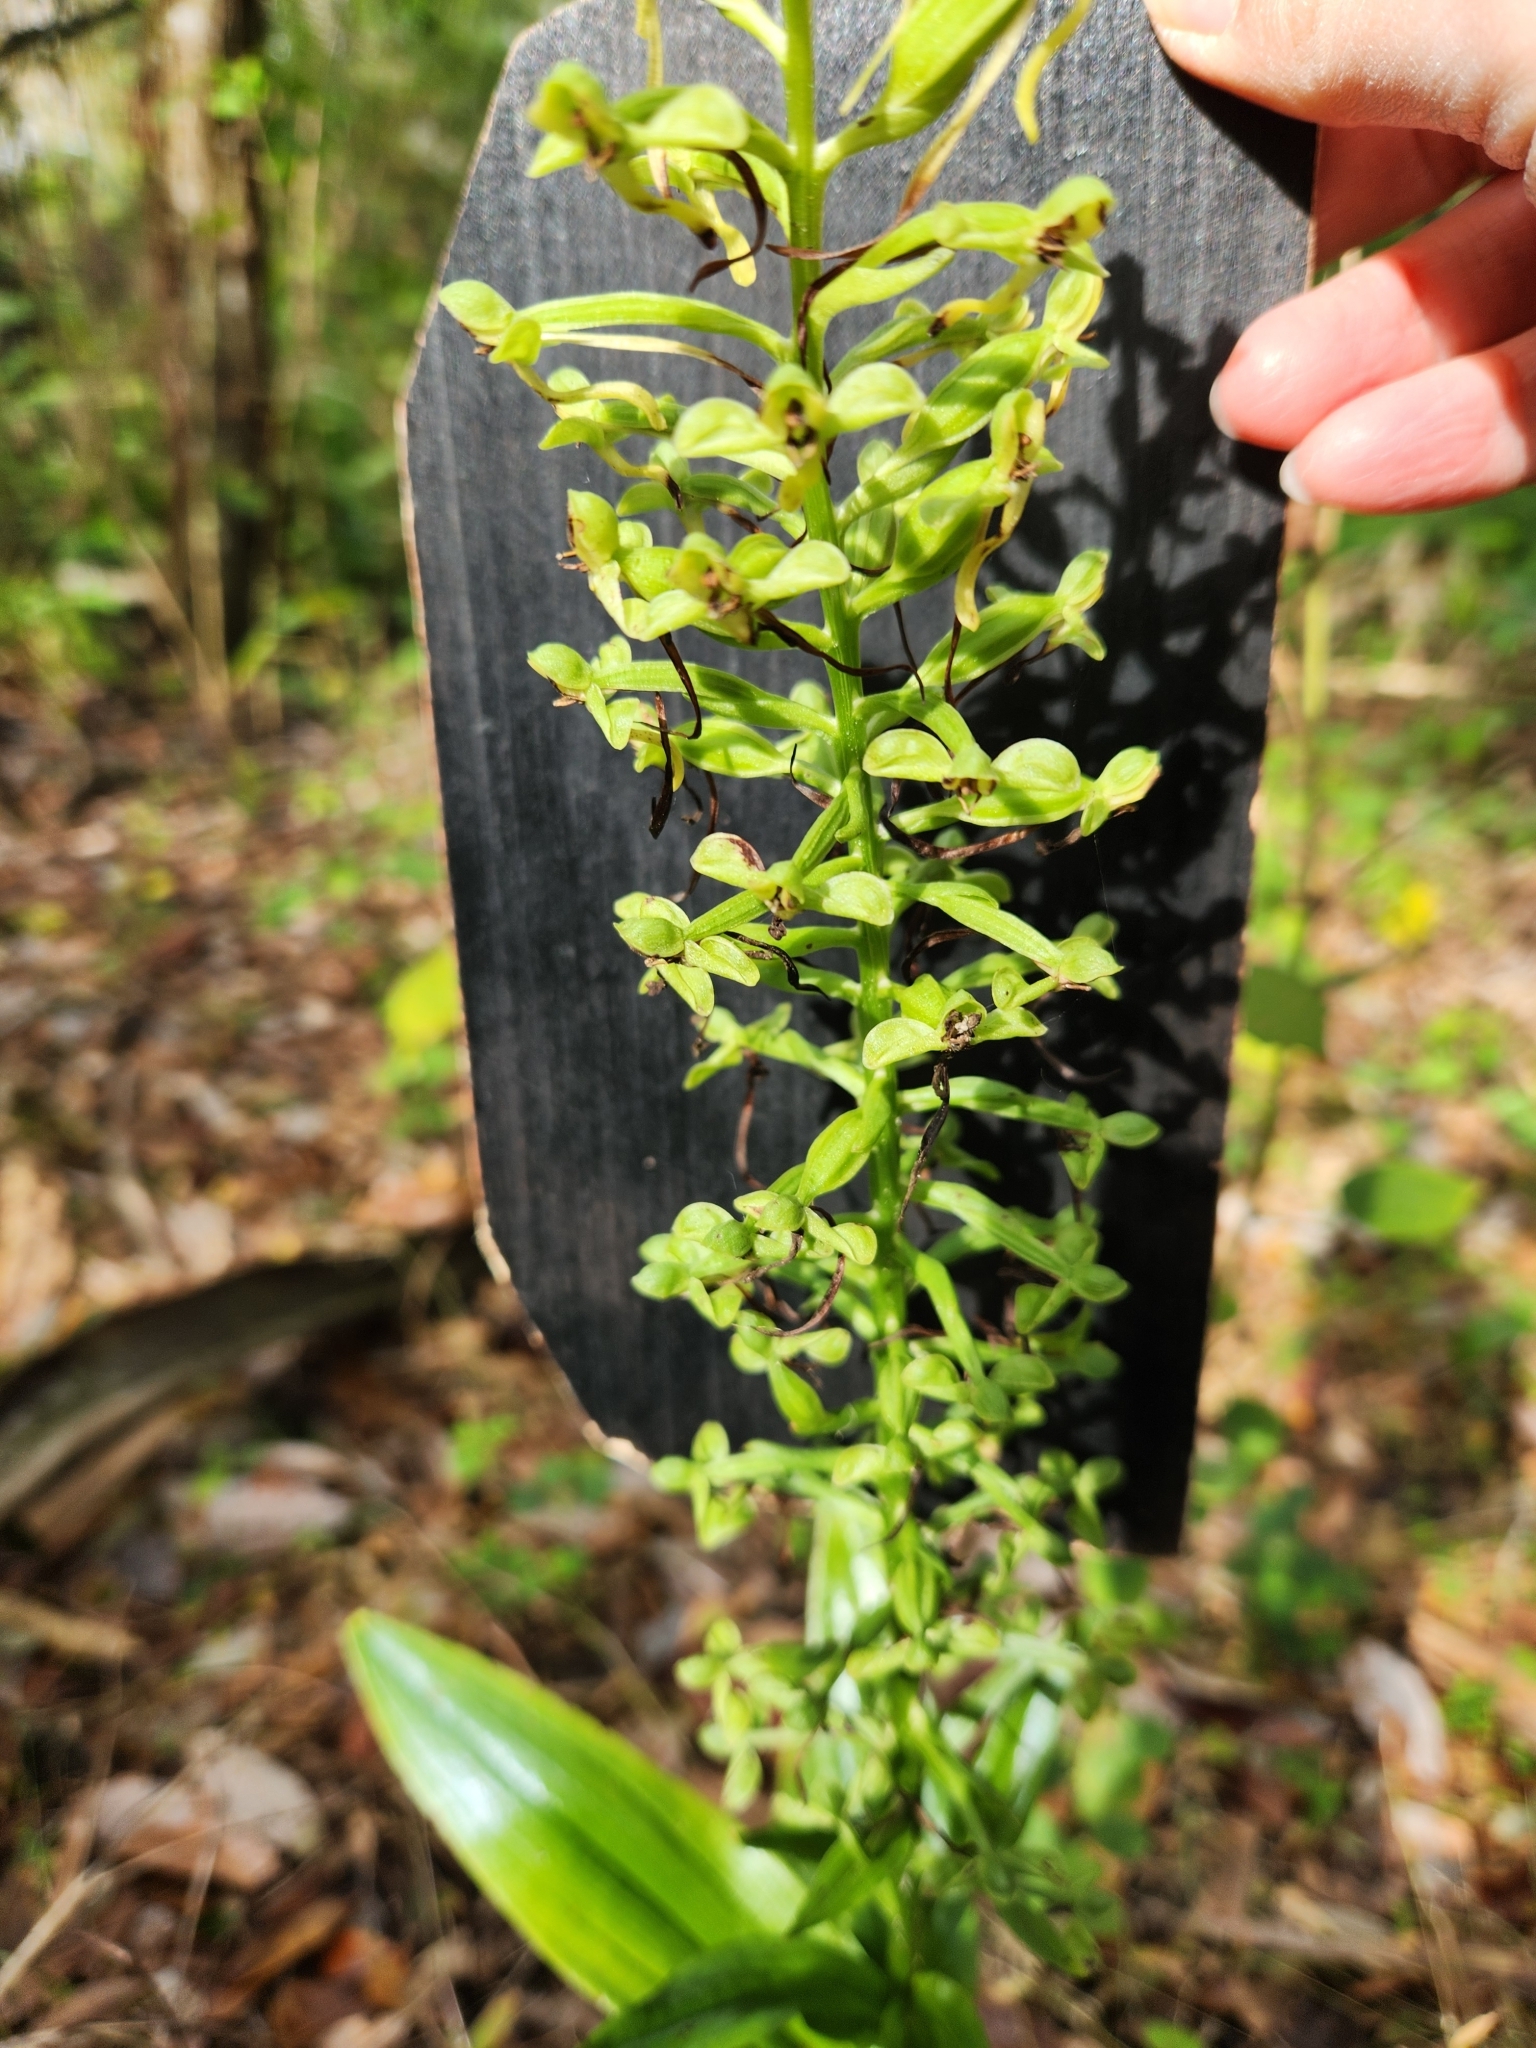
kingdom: Plantae
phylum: Tracheophyta
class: Liliopsida
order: Asparagales
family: Orchidaceae
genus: Habenaria
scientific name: Habenaria floribunda
